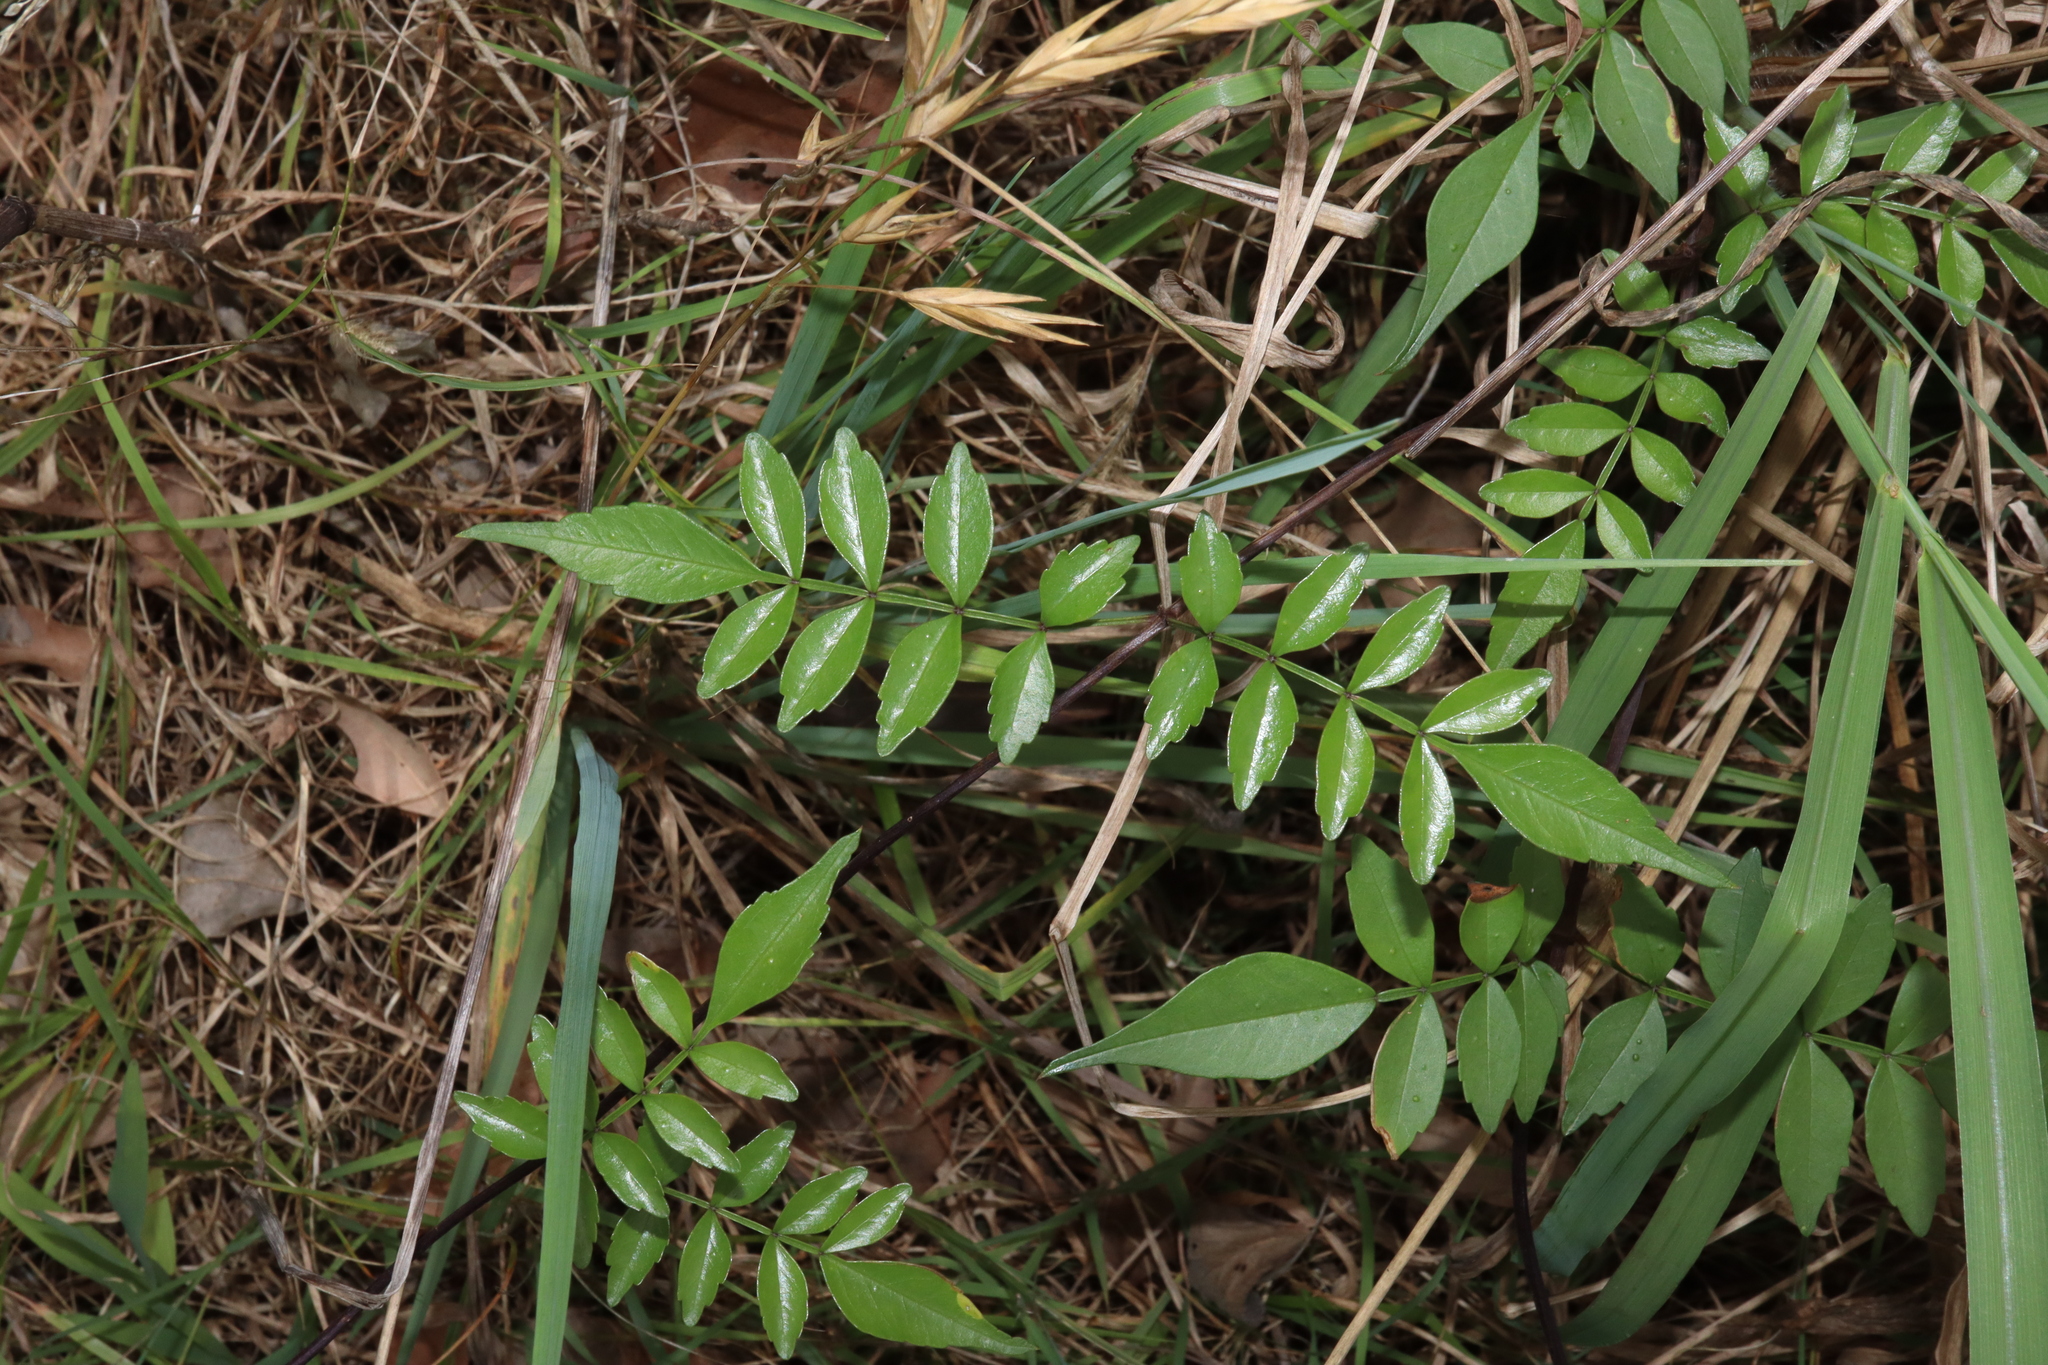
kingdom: Plantae
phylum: Tracheophyta
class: Magnoliopsida
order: Lamiales
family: Bignoniaceae
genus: Pandorea
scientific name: Pandorea pandorana
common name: Wonga-wonga-vine
